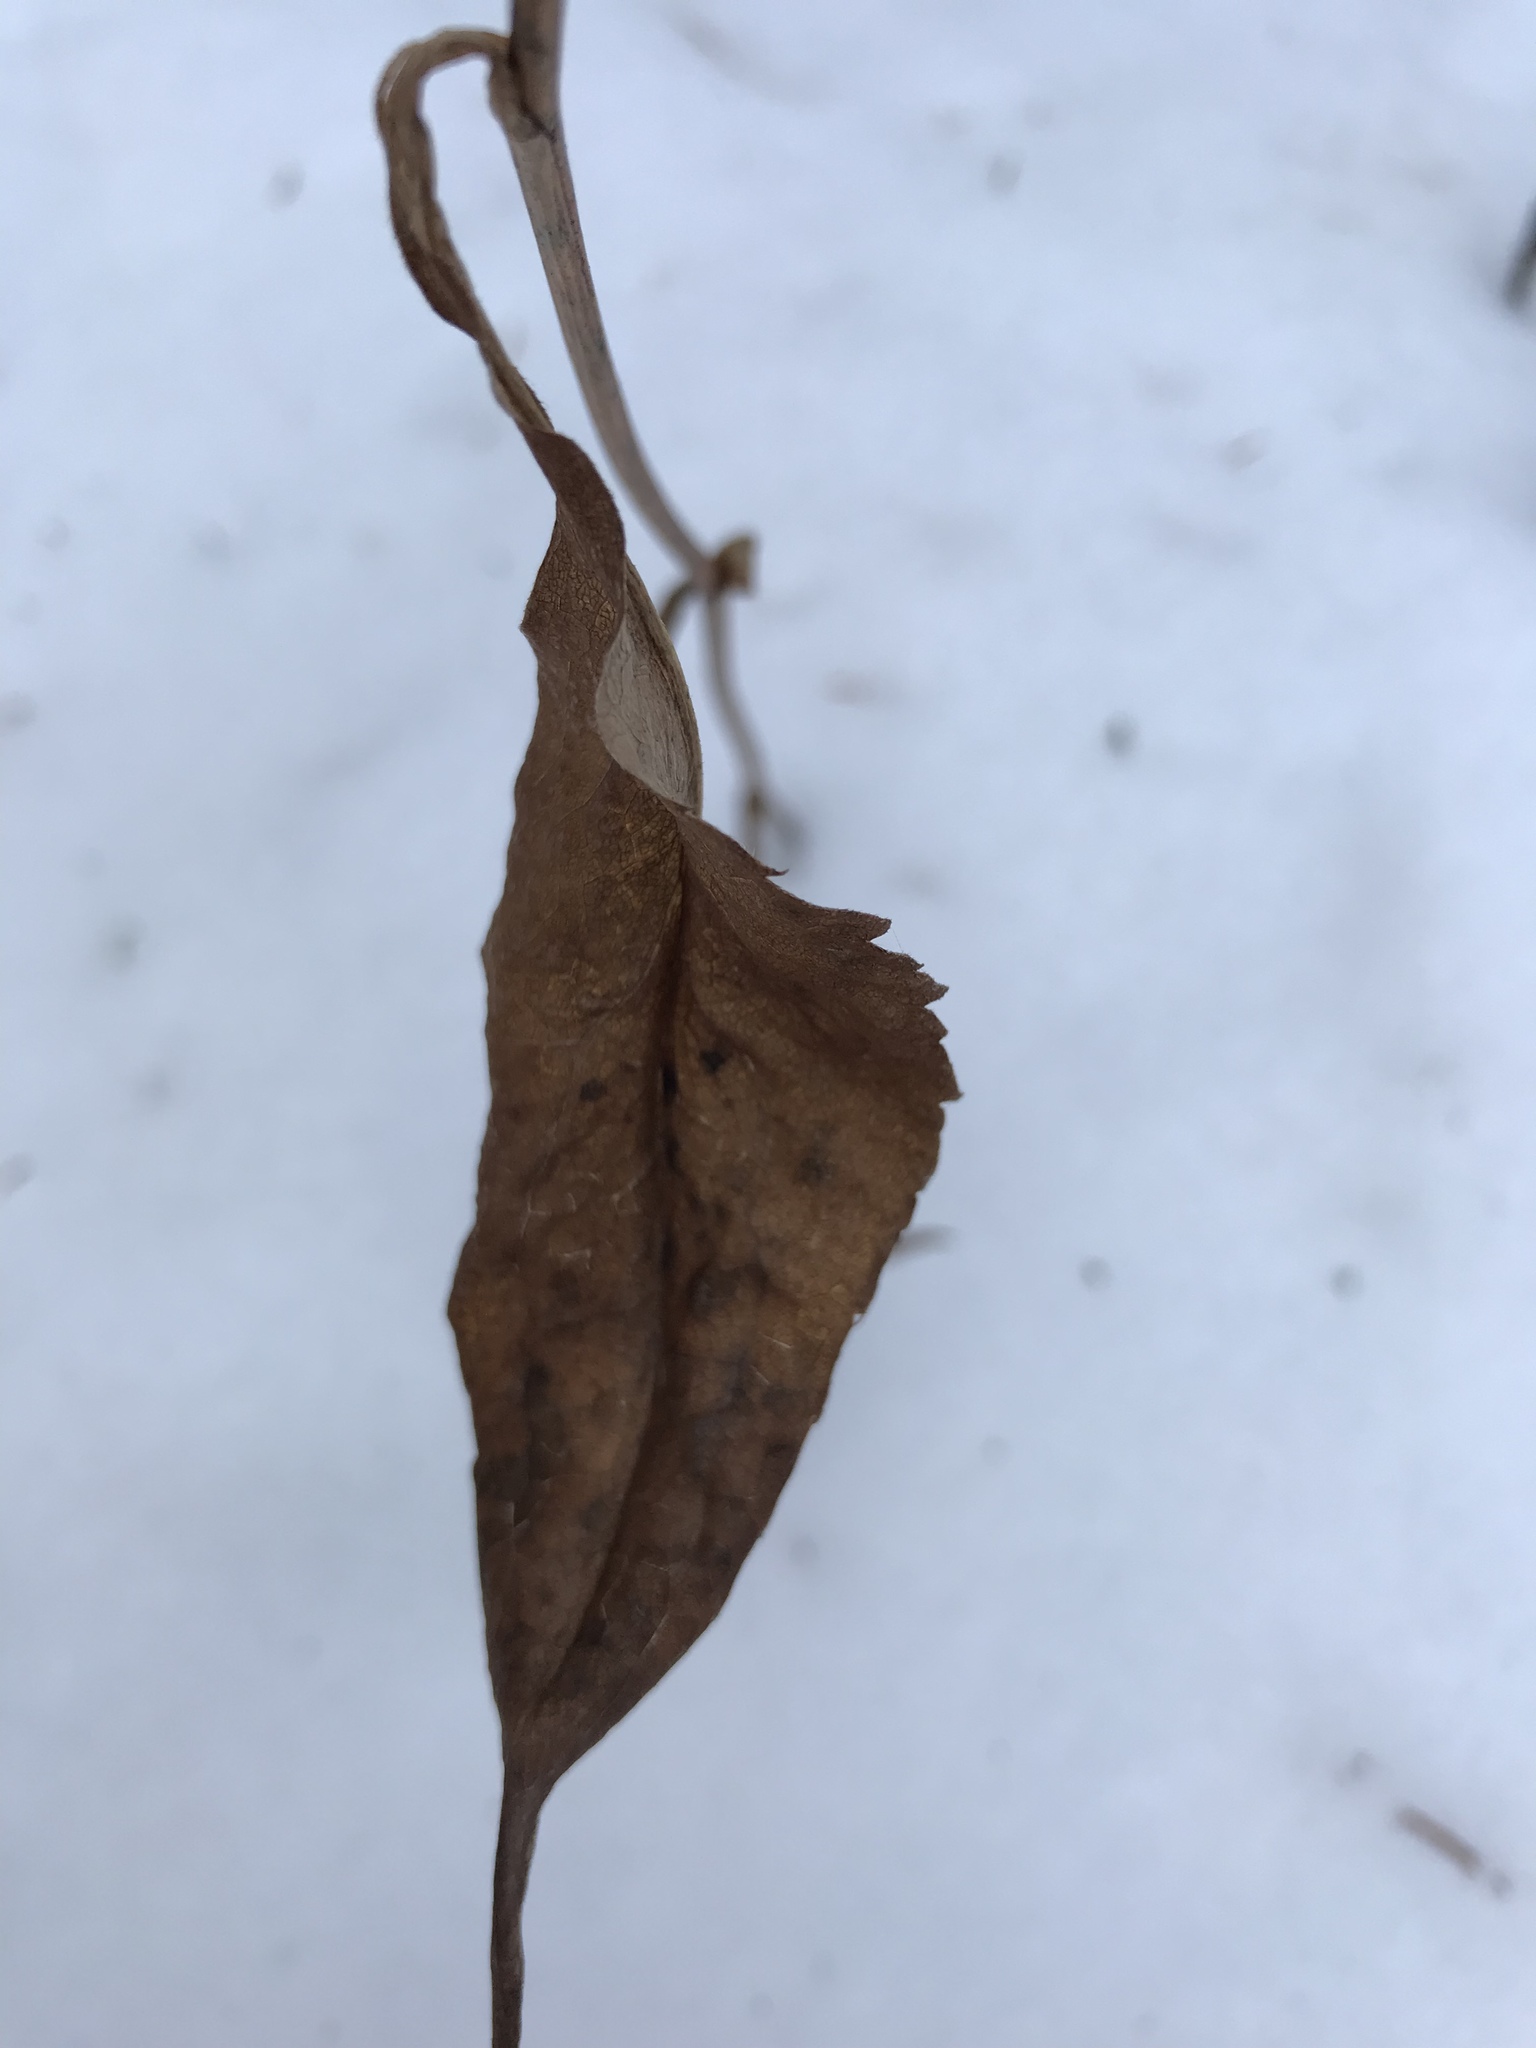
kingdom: Plantae
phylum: Tracheophyta
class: Magnoliopsida
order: Asterales
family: Asteraceae
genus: Symphyotrichum
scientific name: Symphyotrichum ciliolatum
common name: Fringed blue aster
